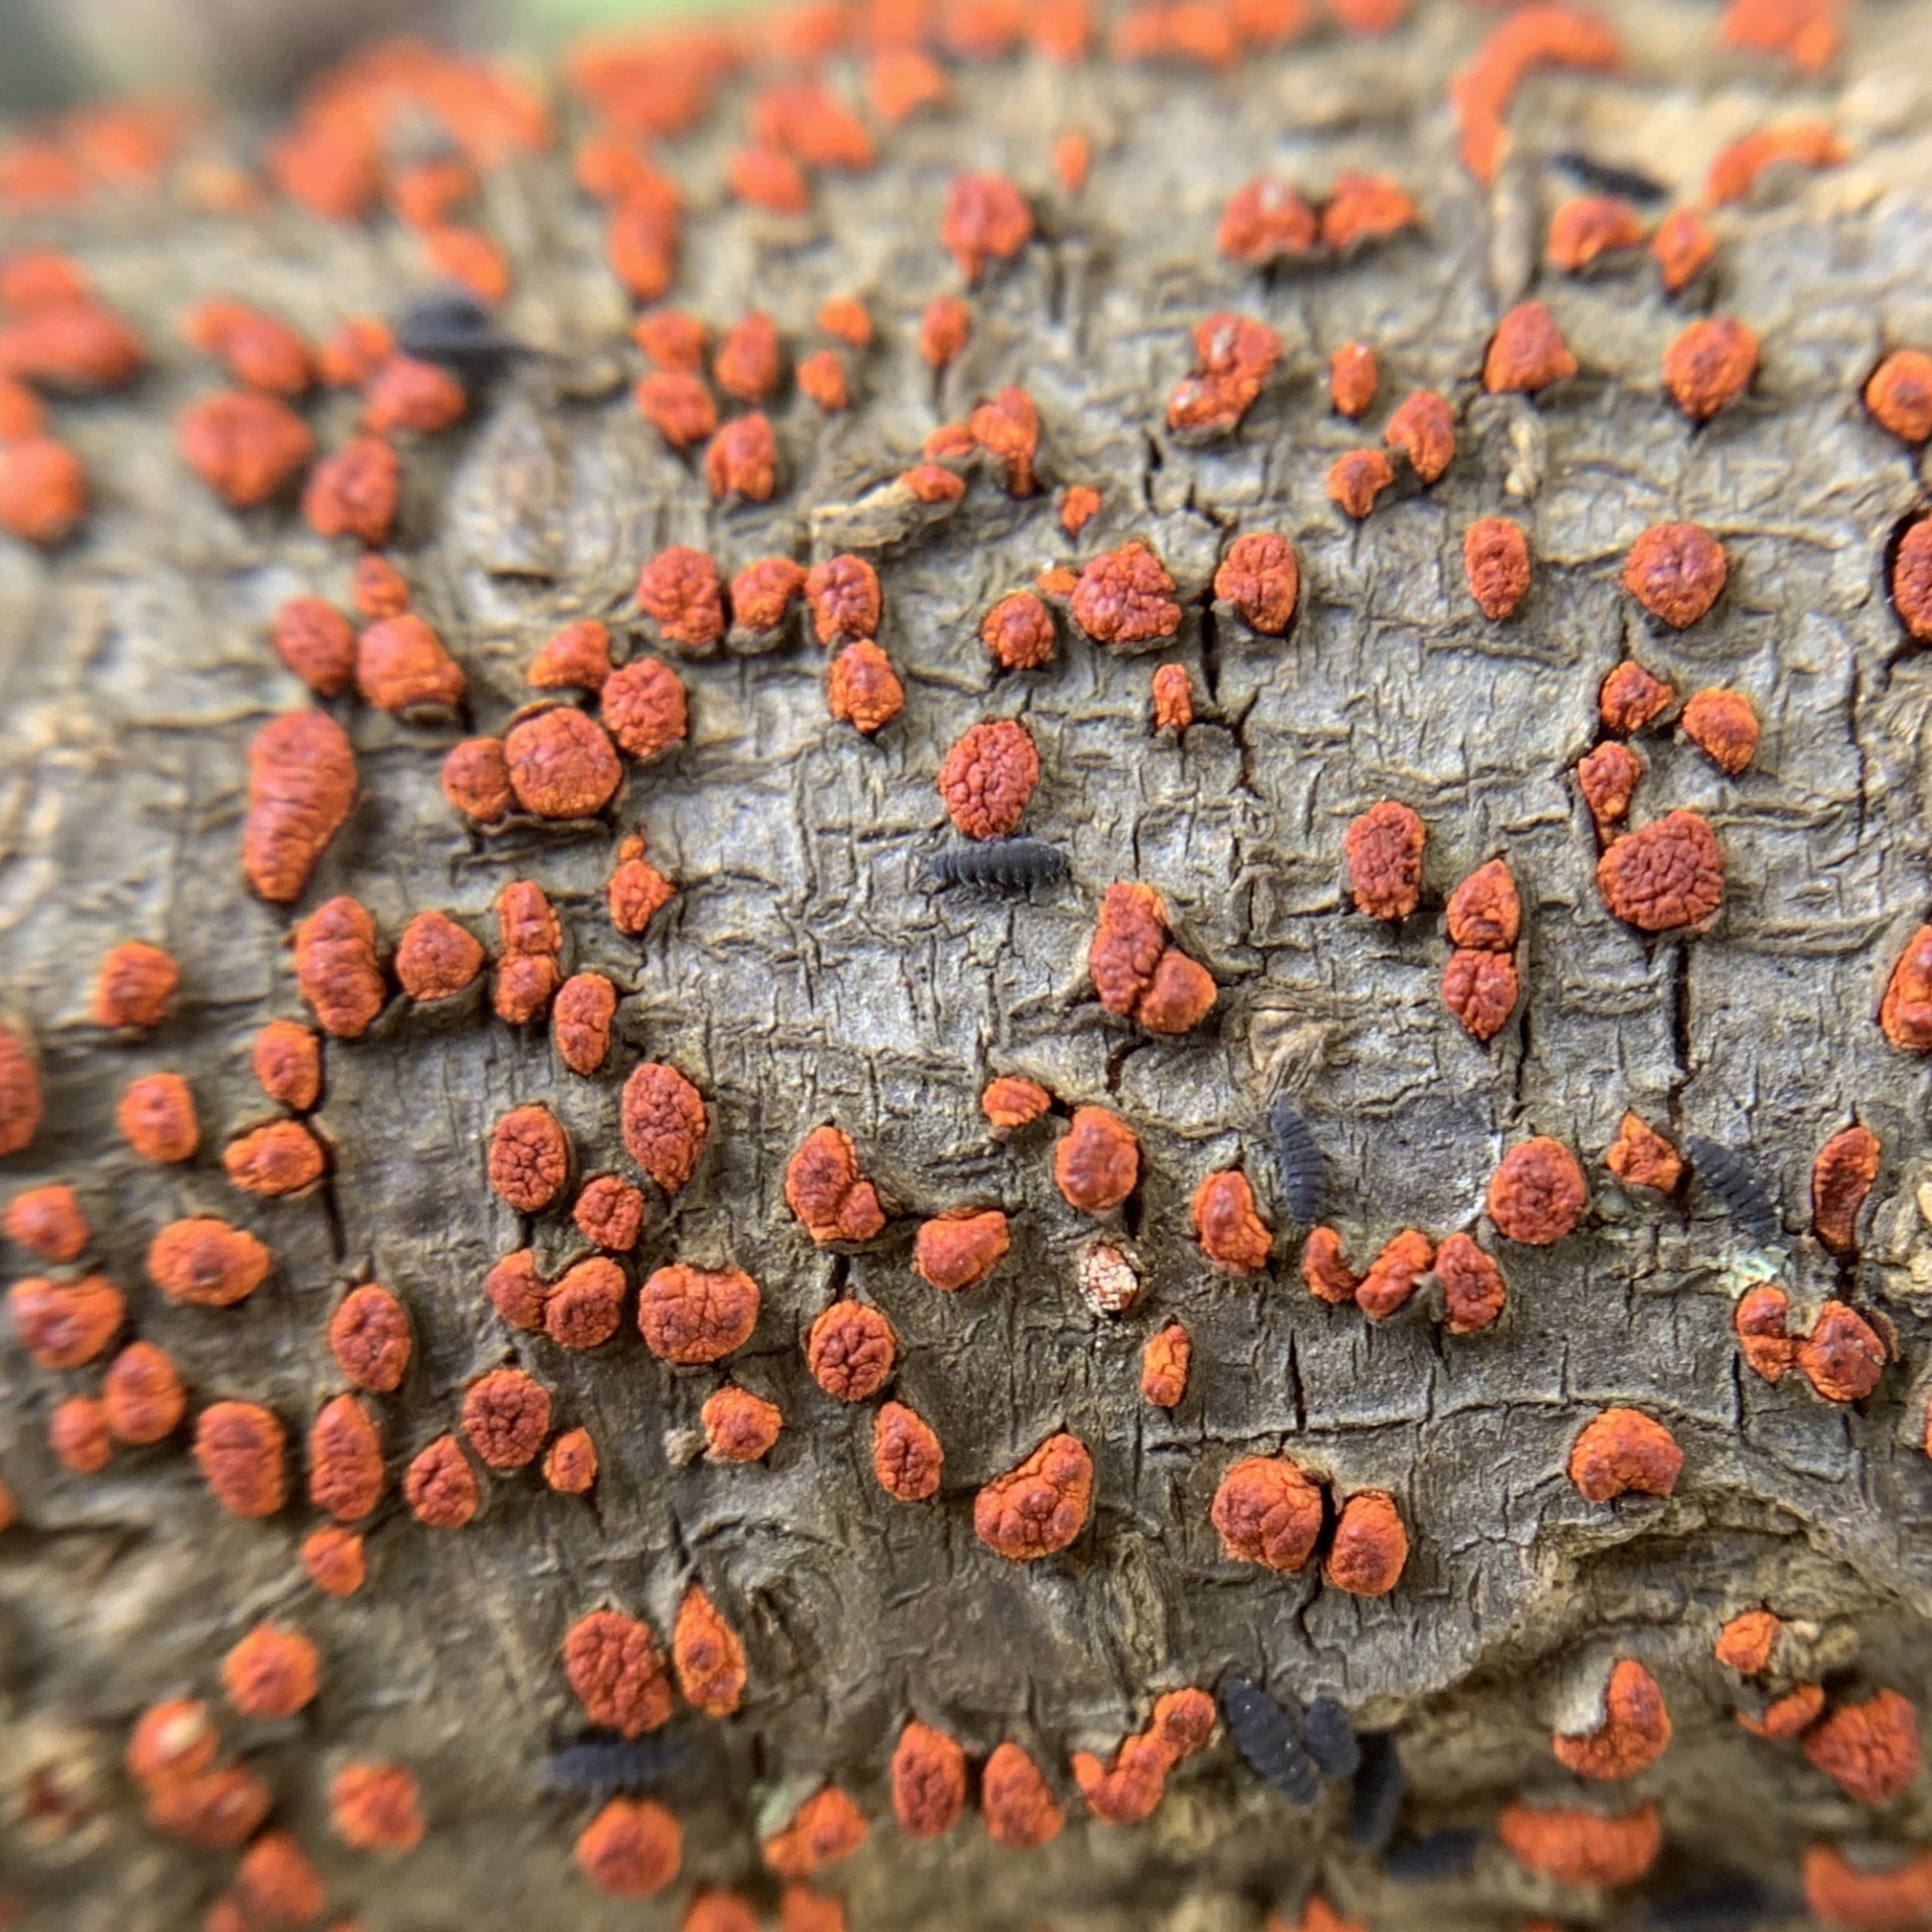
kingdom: Fungi
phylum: Ascomycota
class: Sordariomycetes
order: Diaporthales
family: Cryphonectriaceae
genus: Amphilogia
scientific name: Amphilogia gyrosa
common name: Orange hobnail canker
